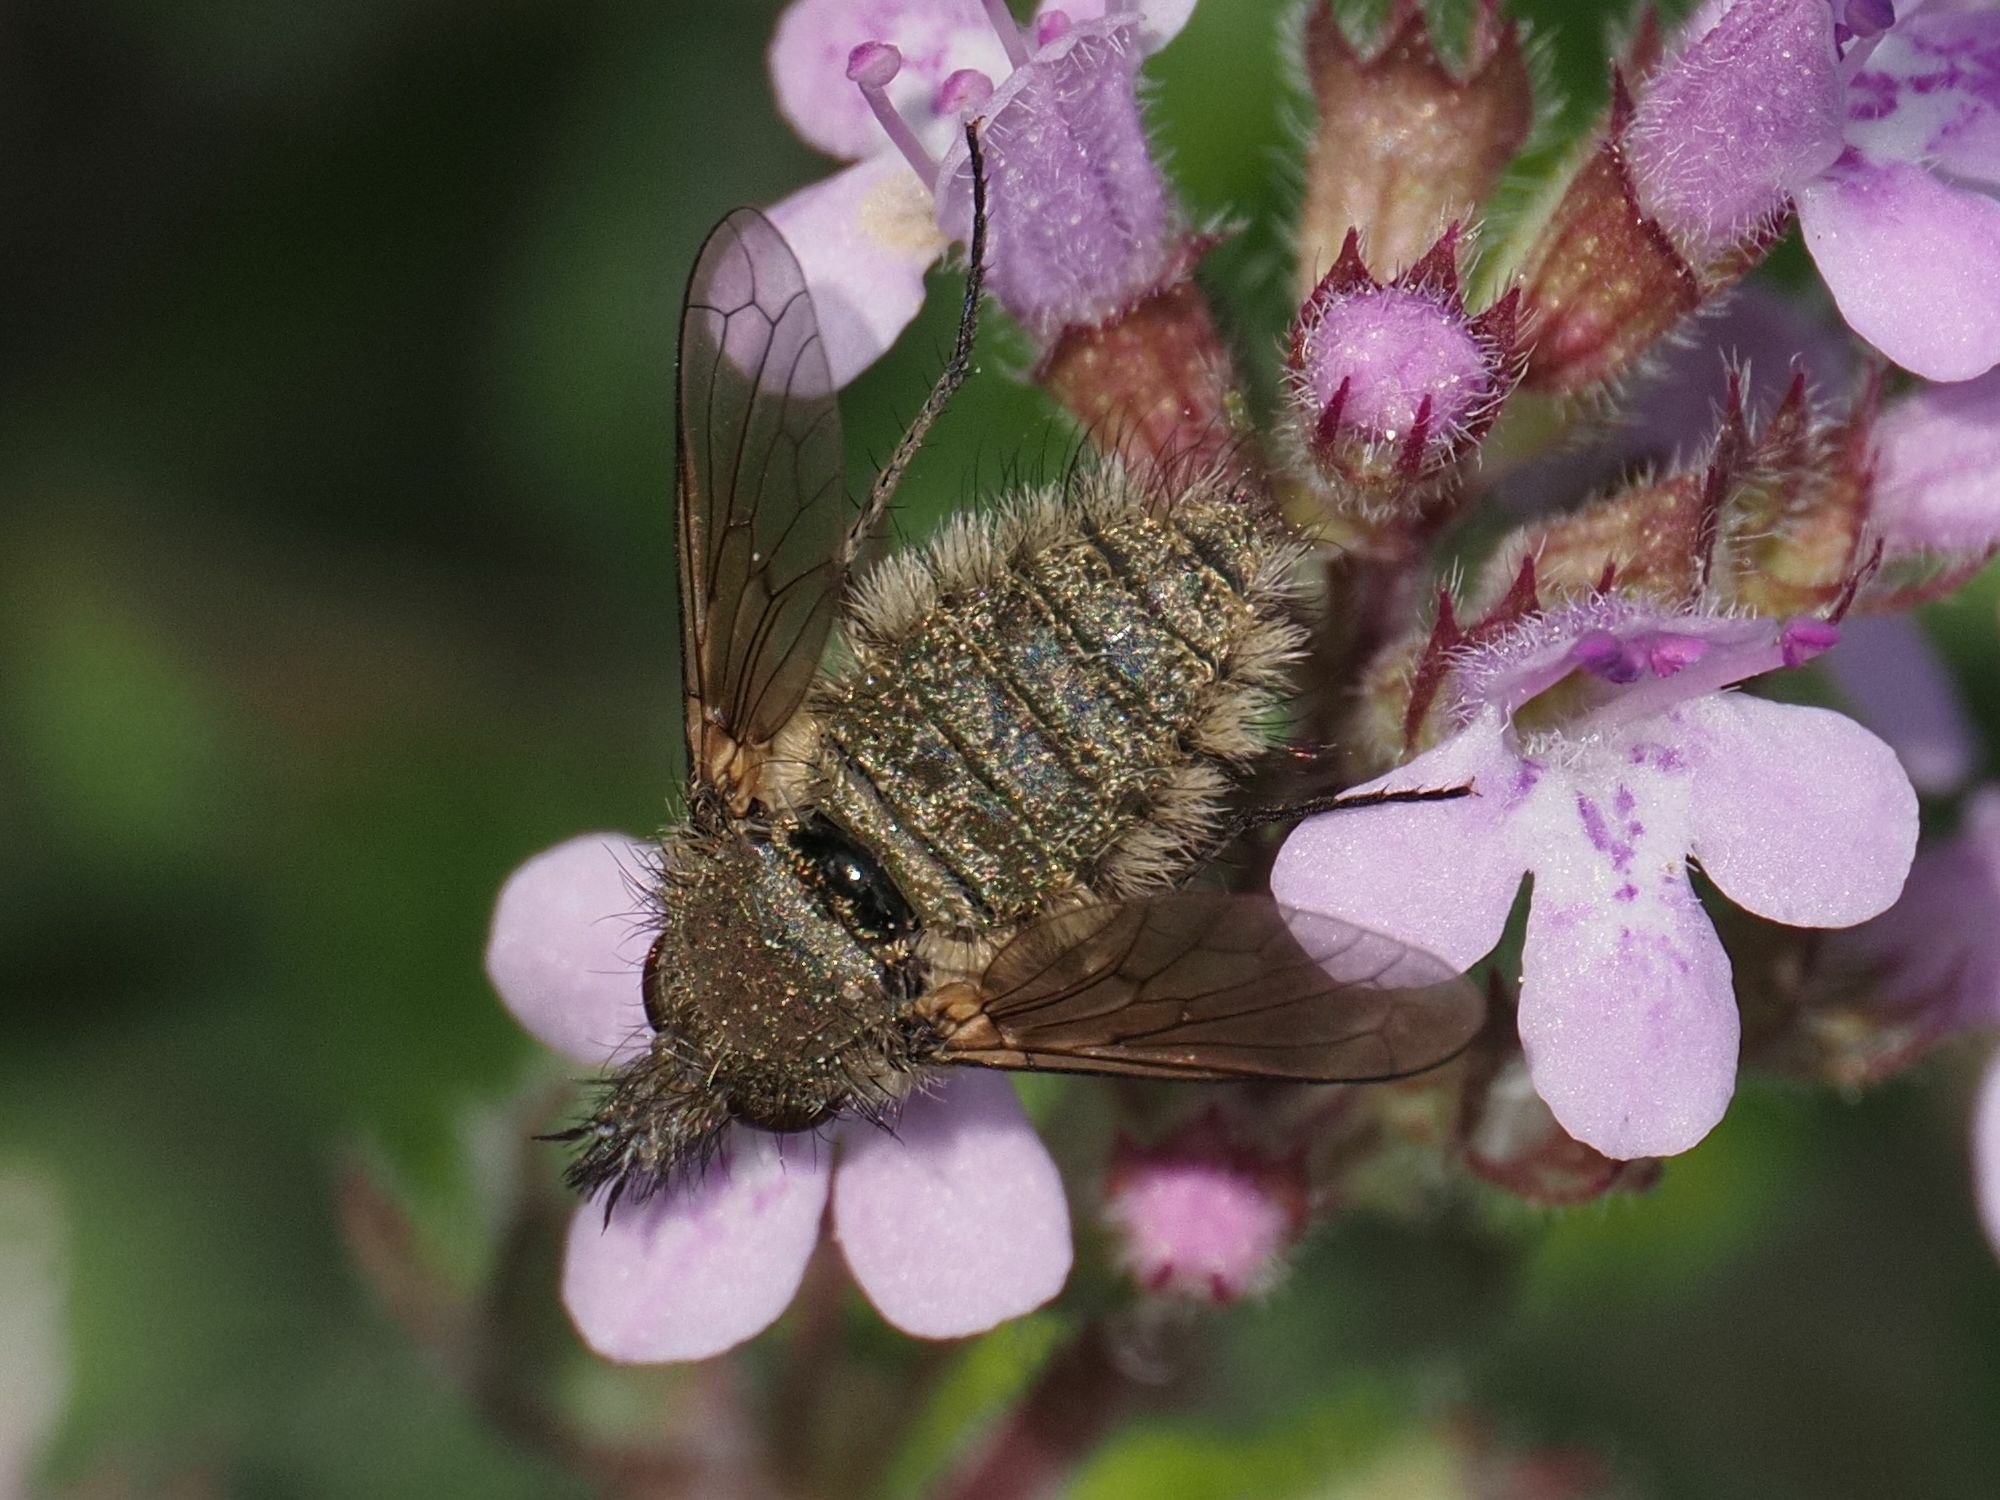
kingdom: Animalia
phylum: Arthropoda
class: Insecta
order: Diptera
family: Bombyliidae
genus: Conophorus
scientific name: Conophorus virescens
